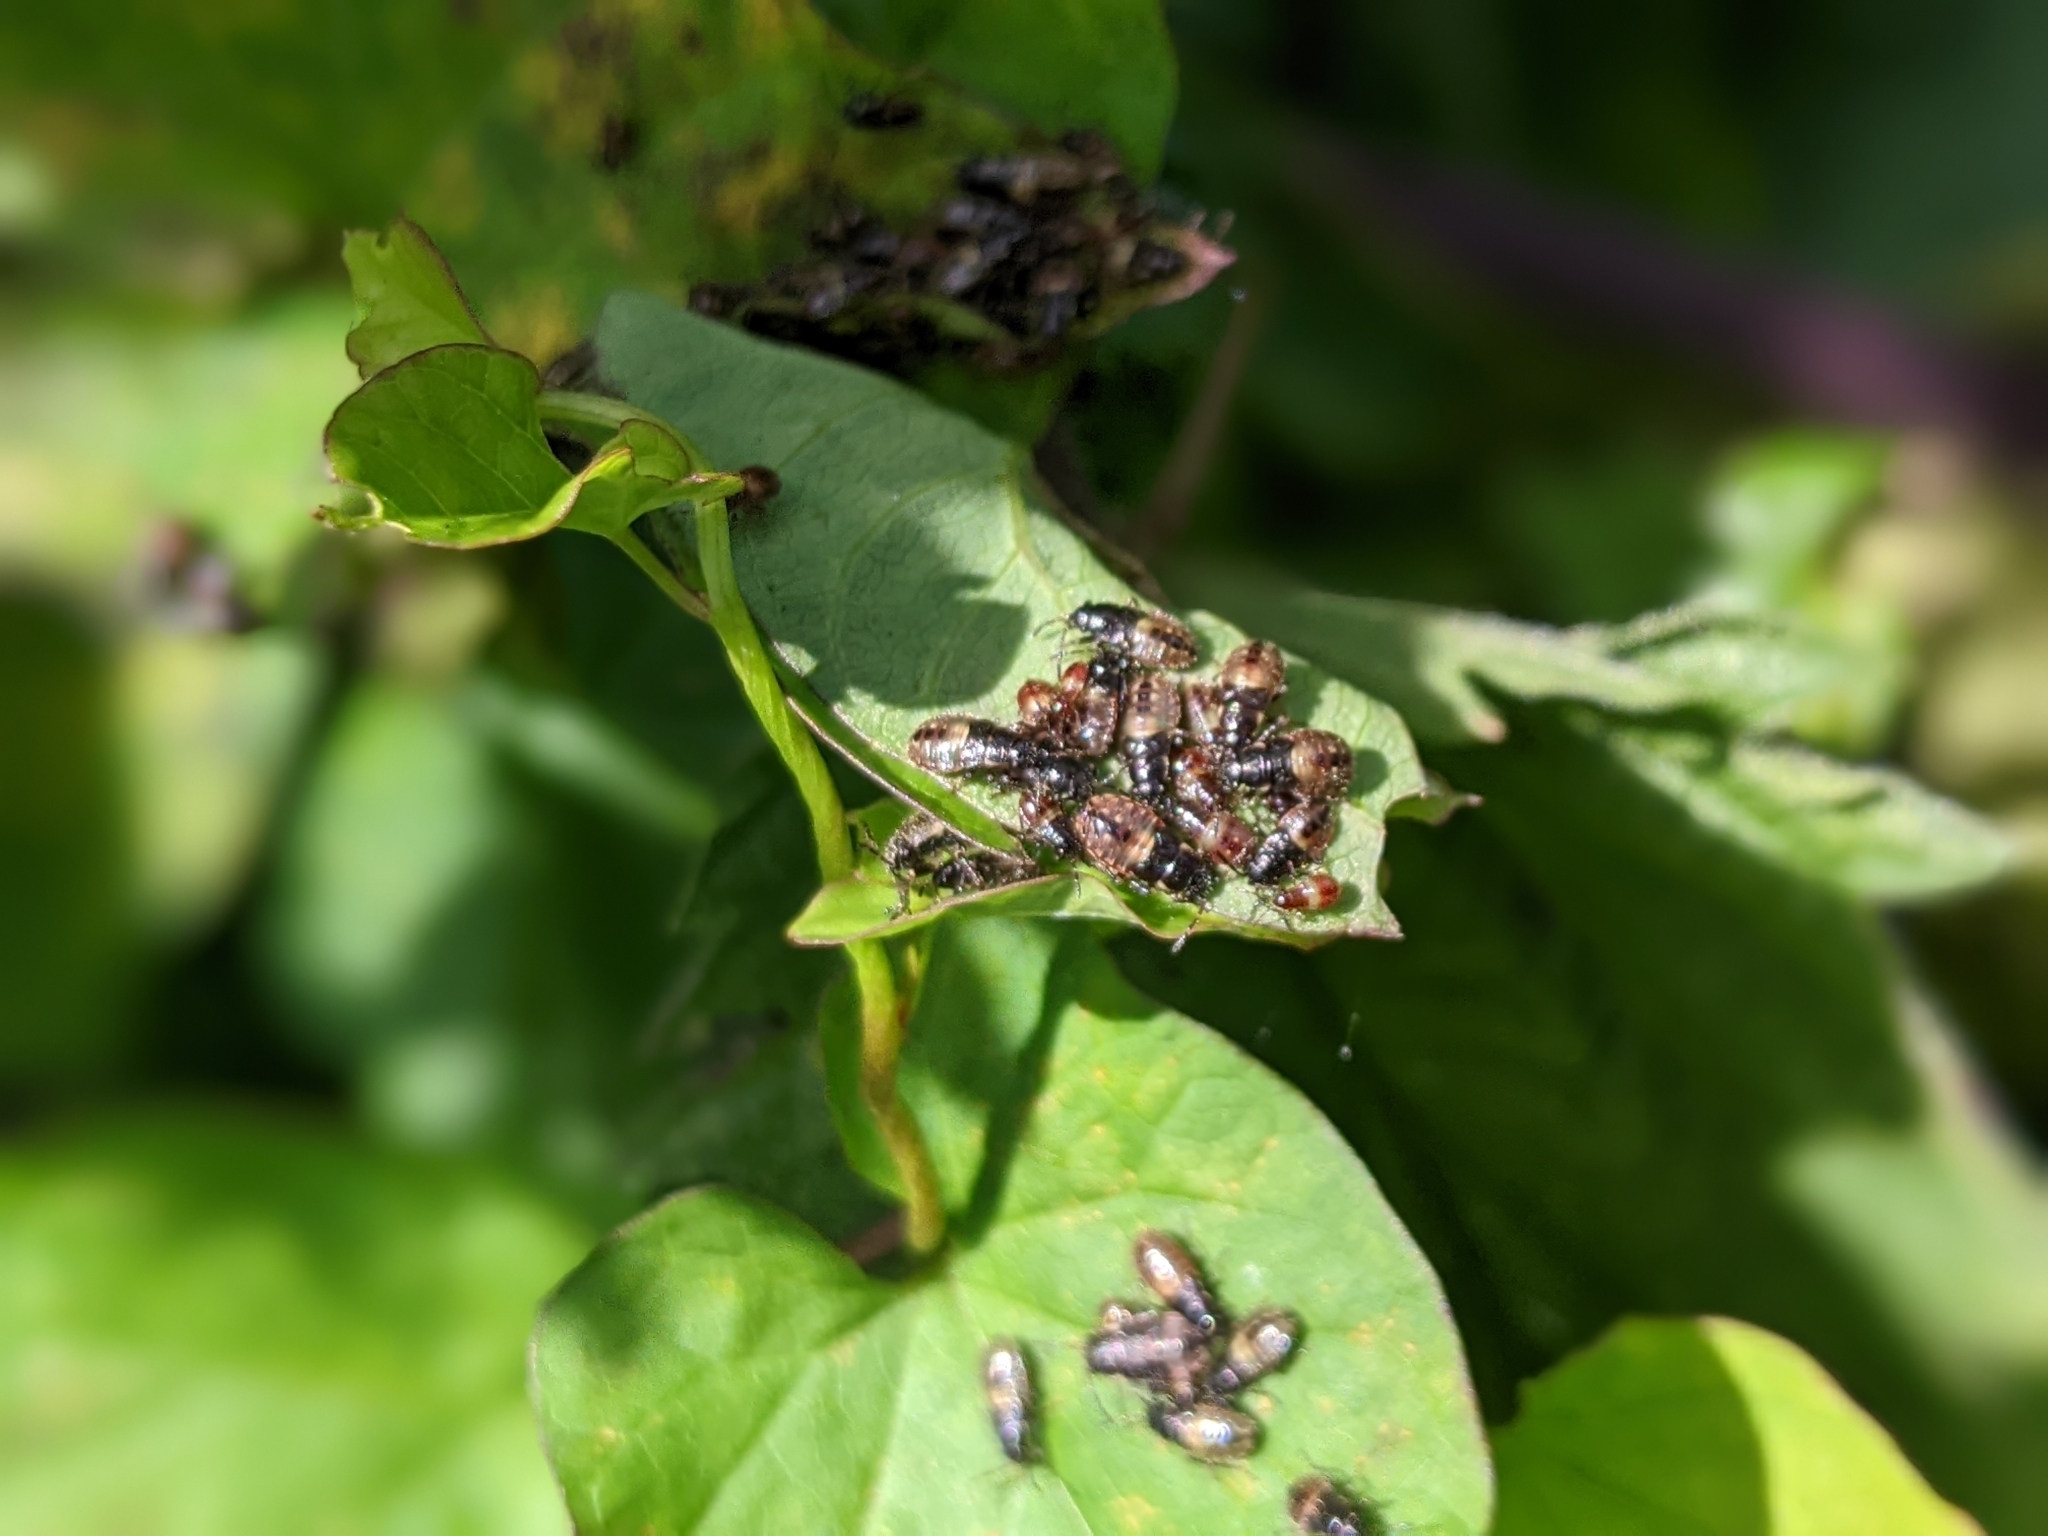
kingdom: Animalia
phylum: Arthropoda
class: Insecta
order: Hemiptera
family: Heterogastridae
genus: Heterogaster
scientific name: Heterogaster urticae
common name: Seed bug
